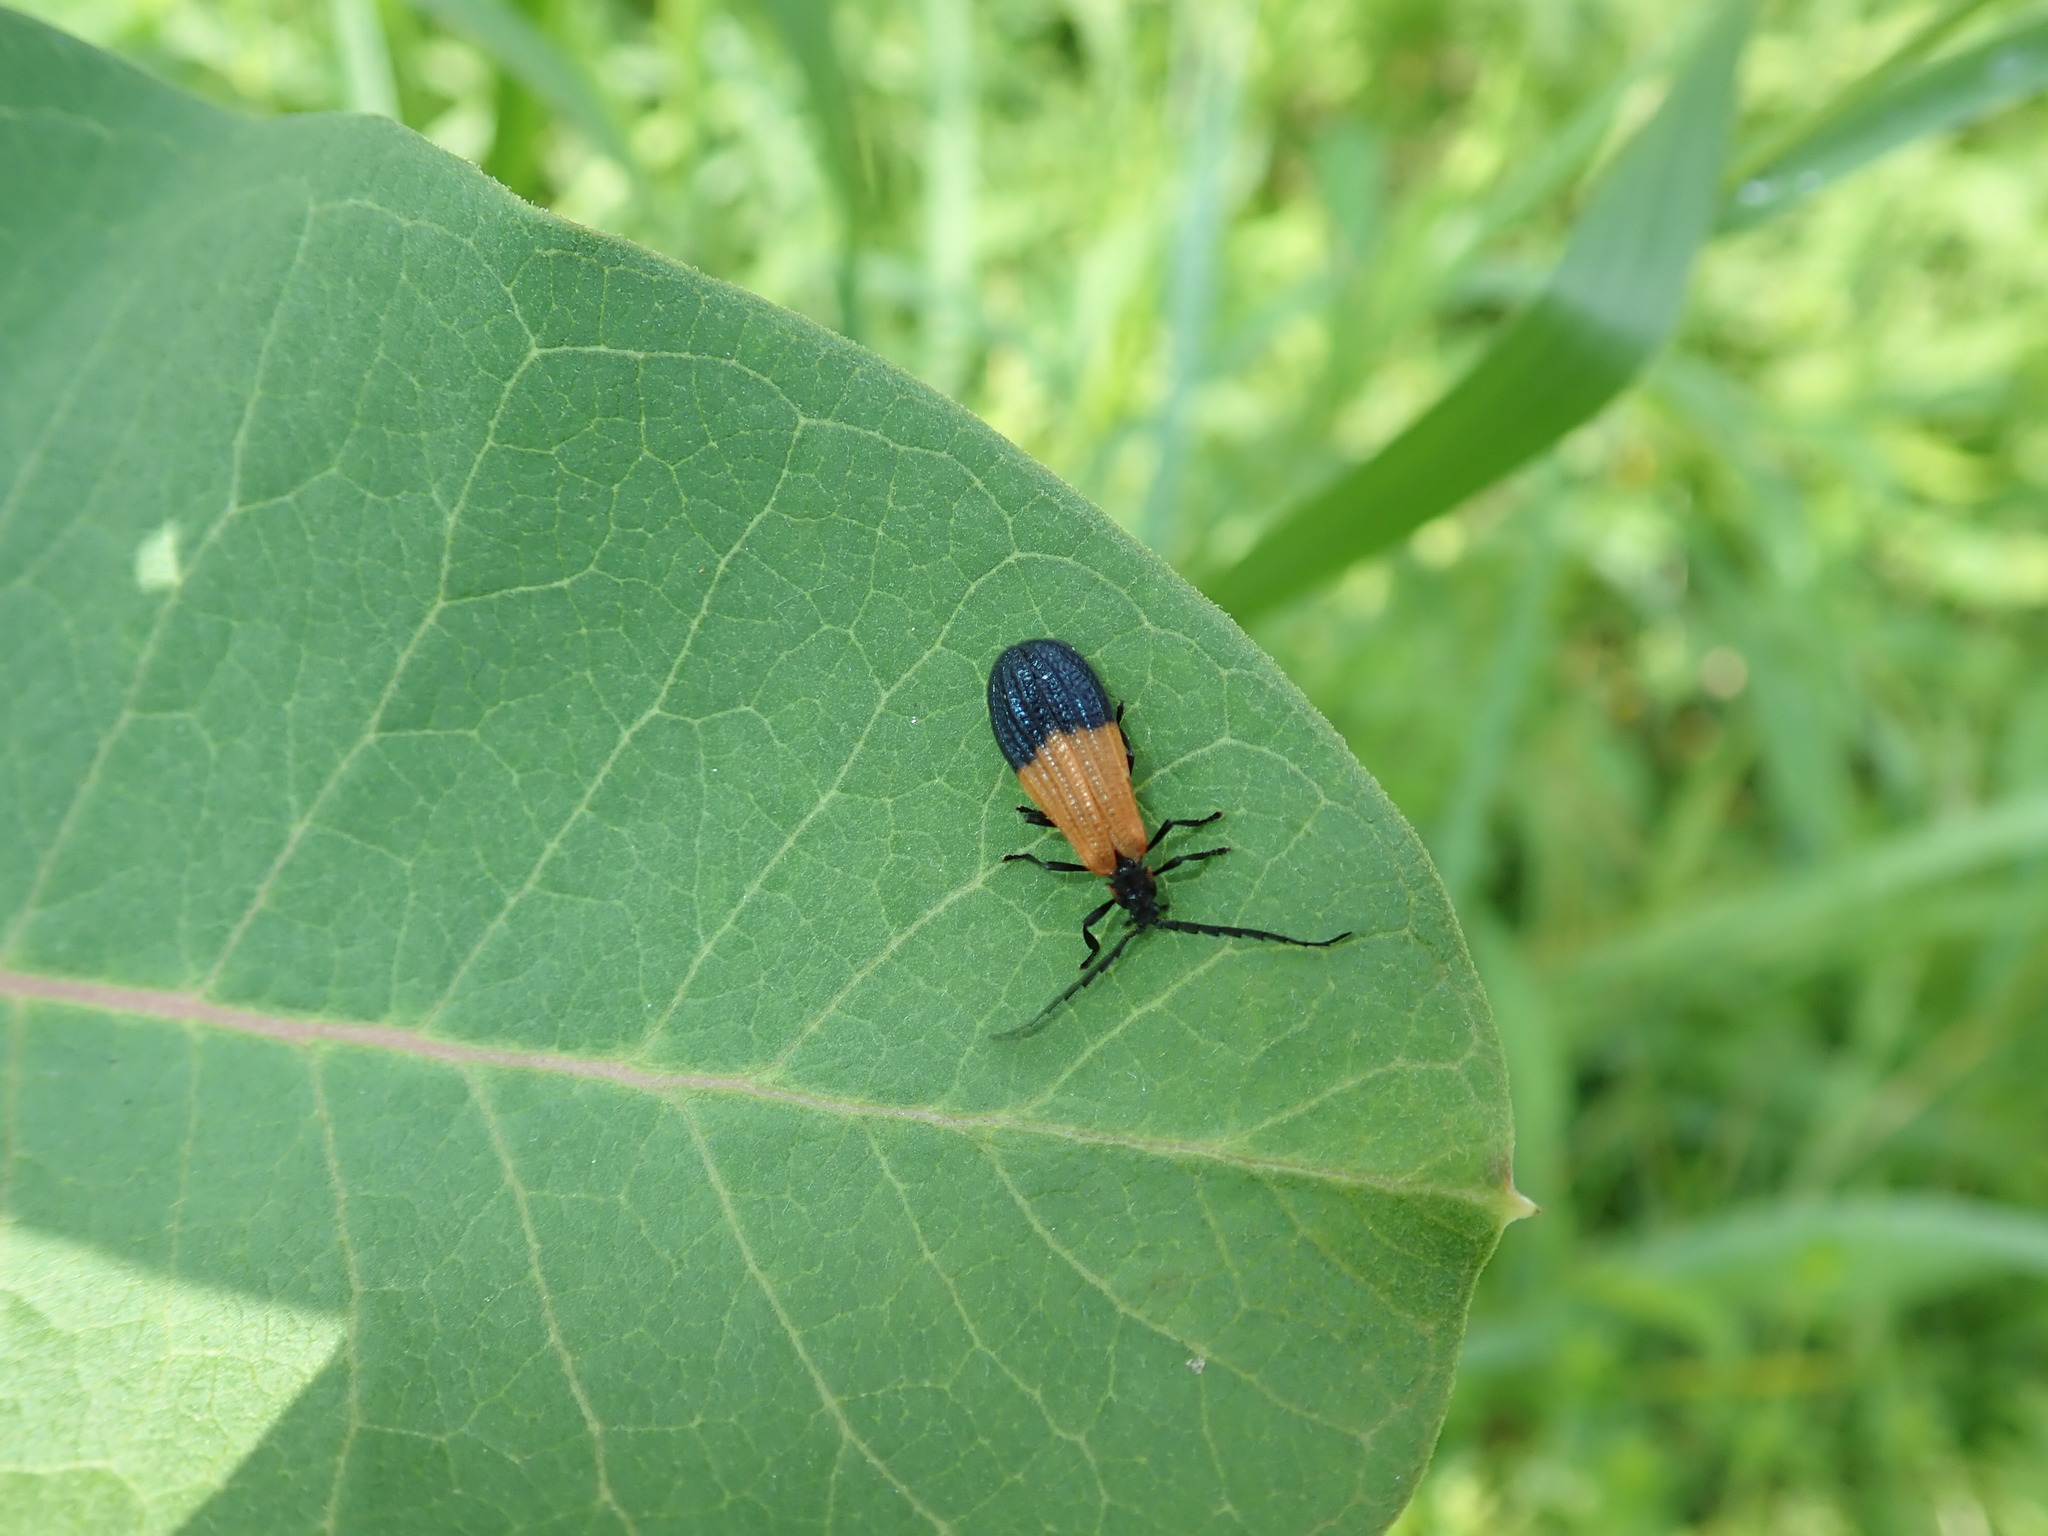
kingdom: Animalia
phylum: Arthropoda
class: Insecta
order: Coleoptera
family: Lycidae
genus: Calopteron
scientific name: Calopteron terminale
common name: End band net-winged beetle
